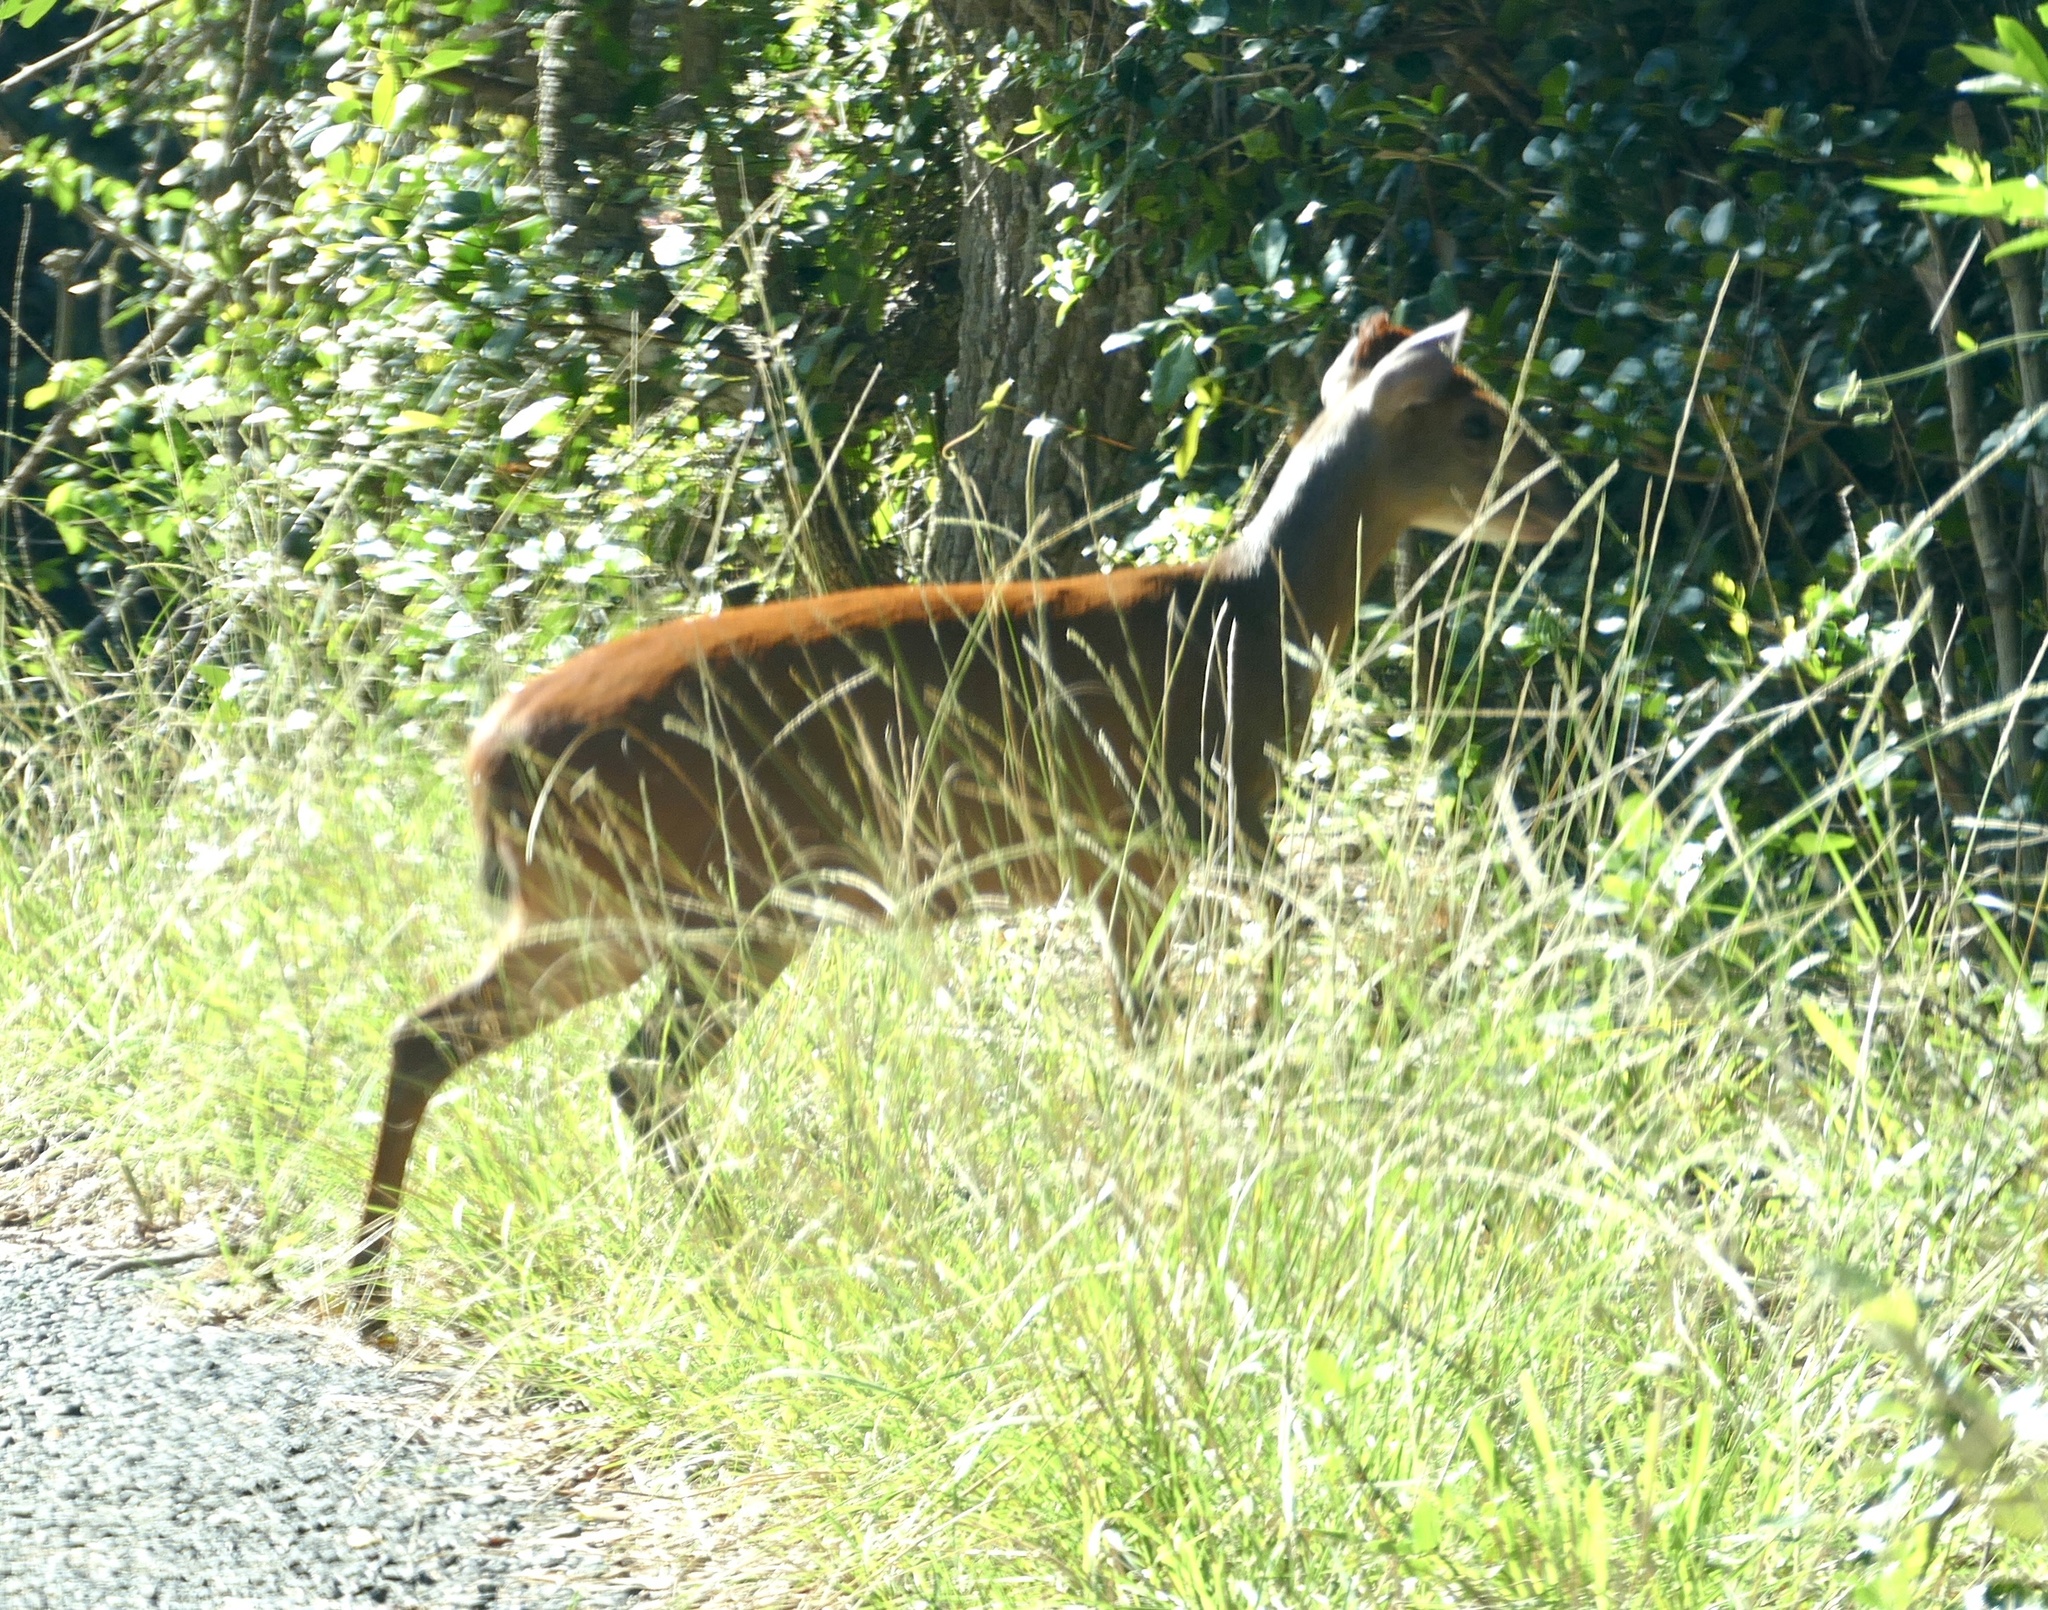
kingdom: Animalia
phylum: Chordata
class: Mammalia
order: Artiodactyla
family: Bovidae
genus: Cephalophus
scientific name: Cephalophus natalensis
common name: Red duiker
